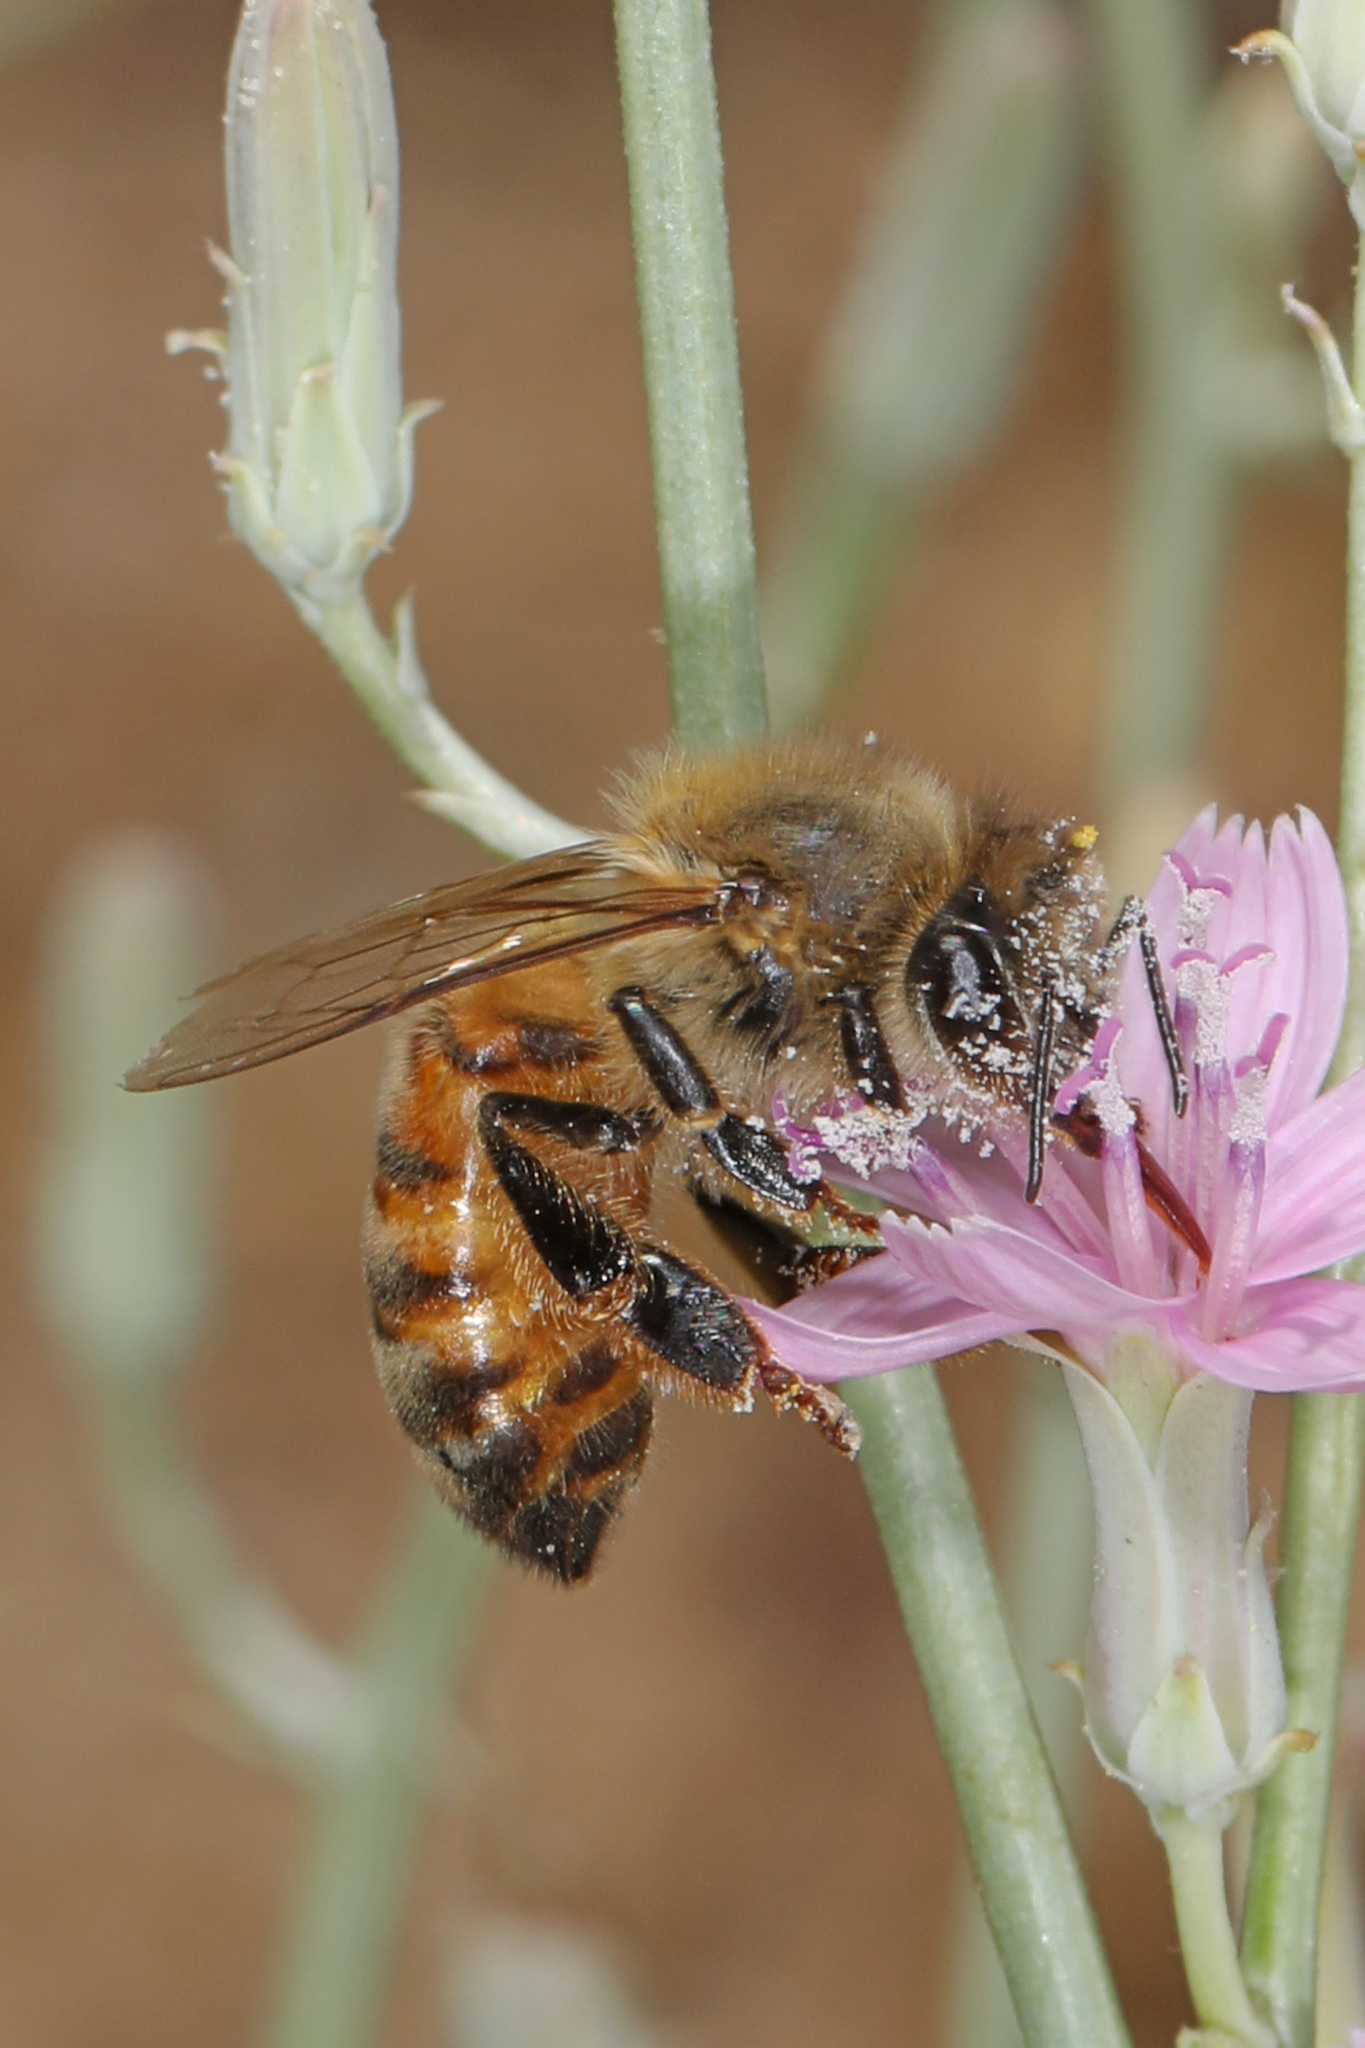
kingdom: Animalia
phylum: Arthropoda
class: Insecta
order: Hymenoptera
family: Apidae
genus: Apis
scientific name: Apis mellifera
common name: Honey bee
